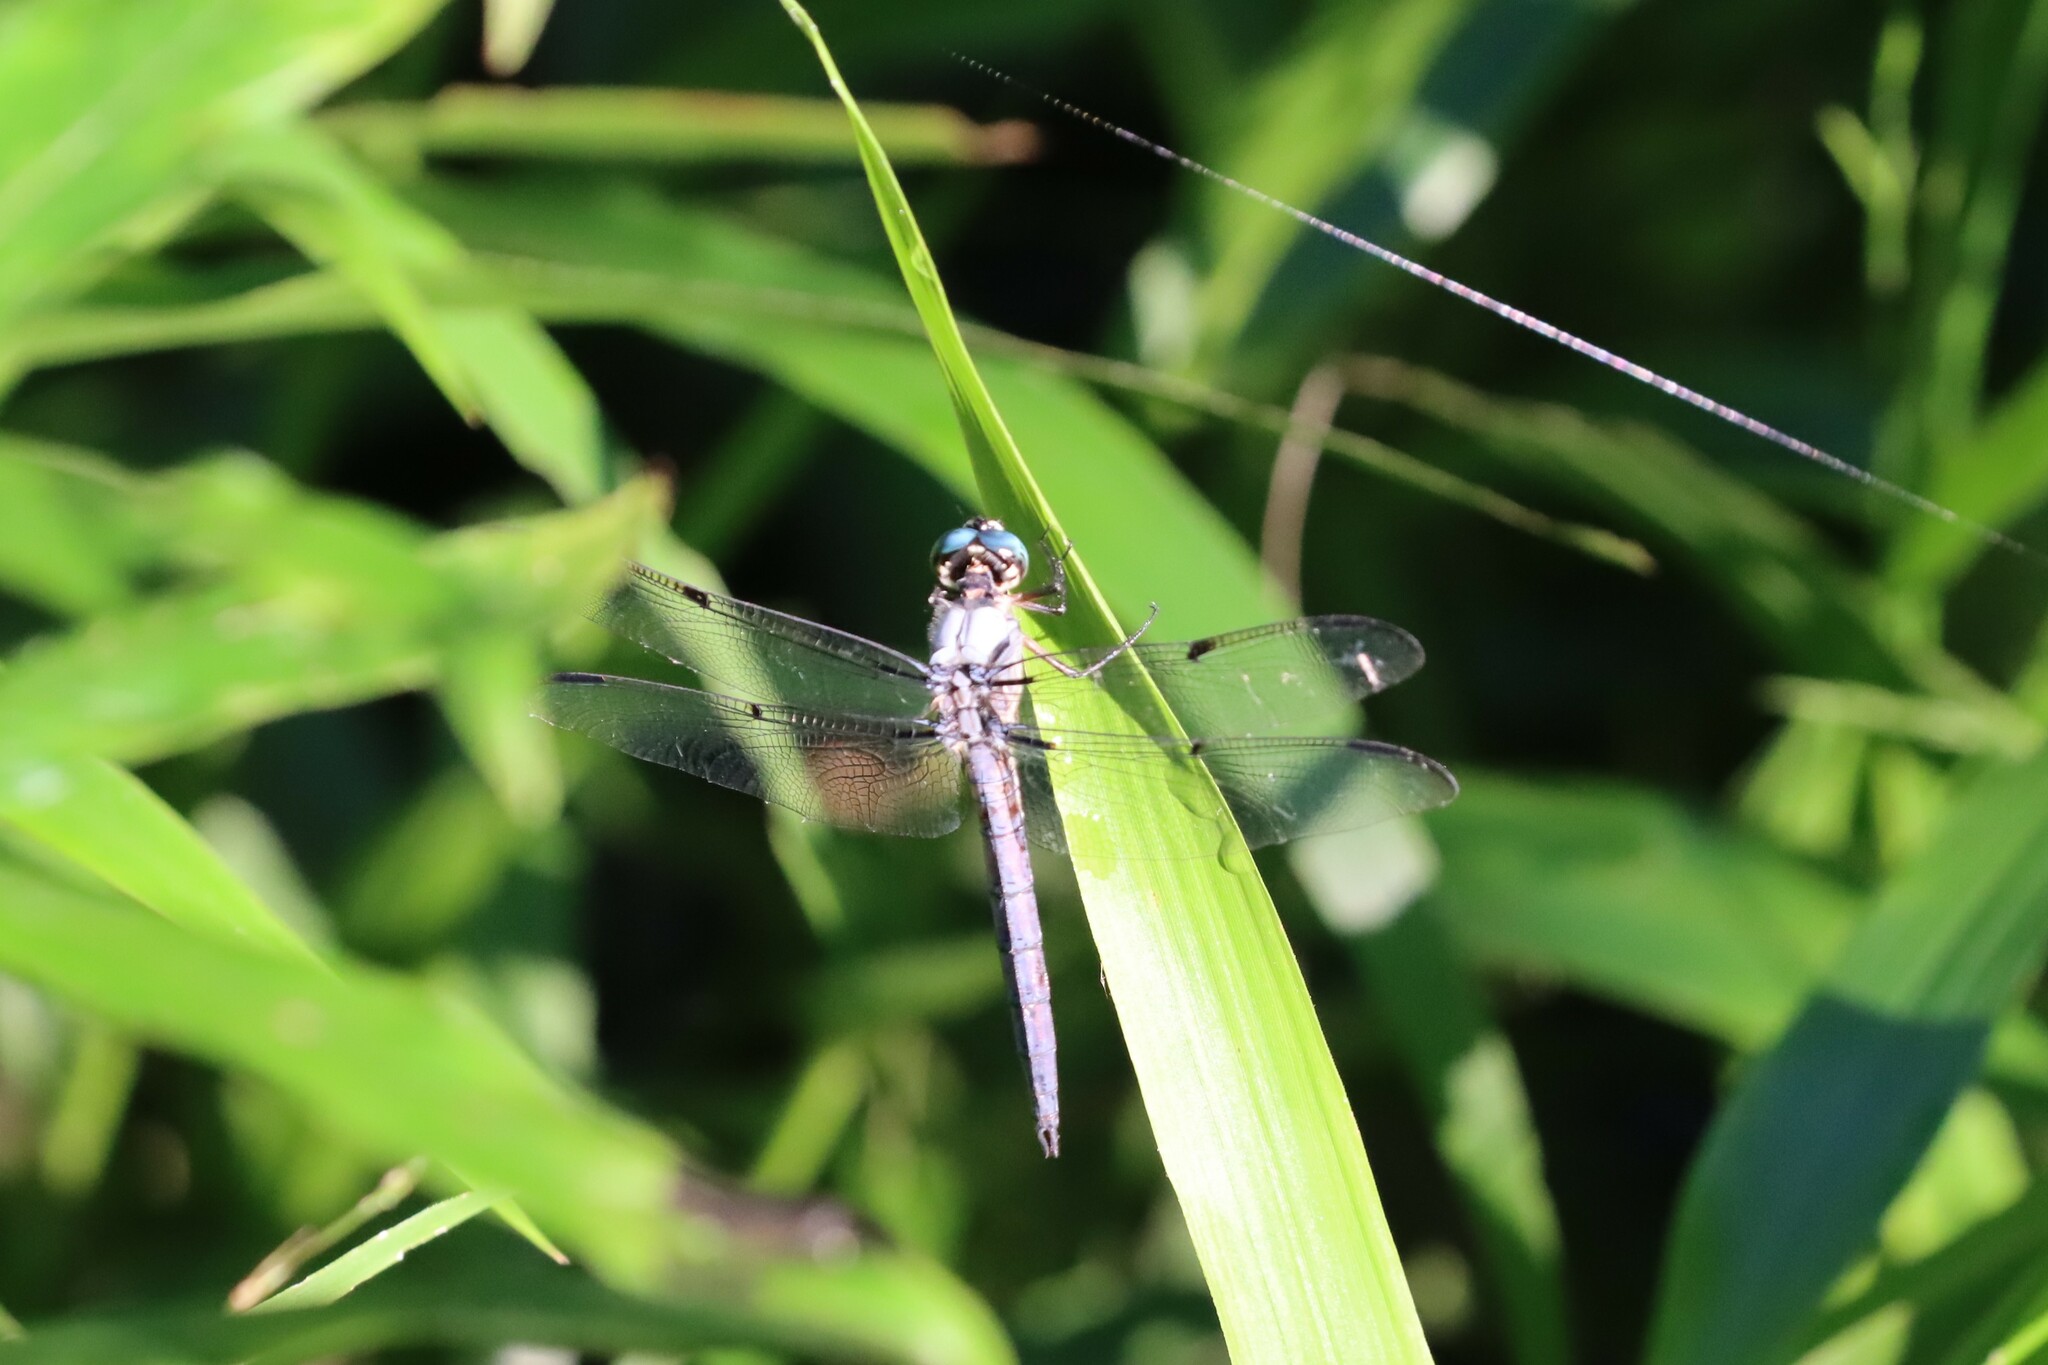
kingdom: Animalia
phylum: Arthropoda
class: Insecta
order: Odonata
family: Libellulidae
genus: Libellula
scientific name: Libellula vibrans
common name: Great blue skimmer
